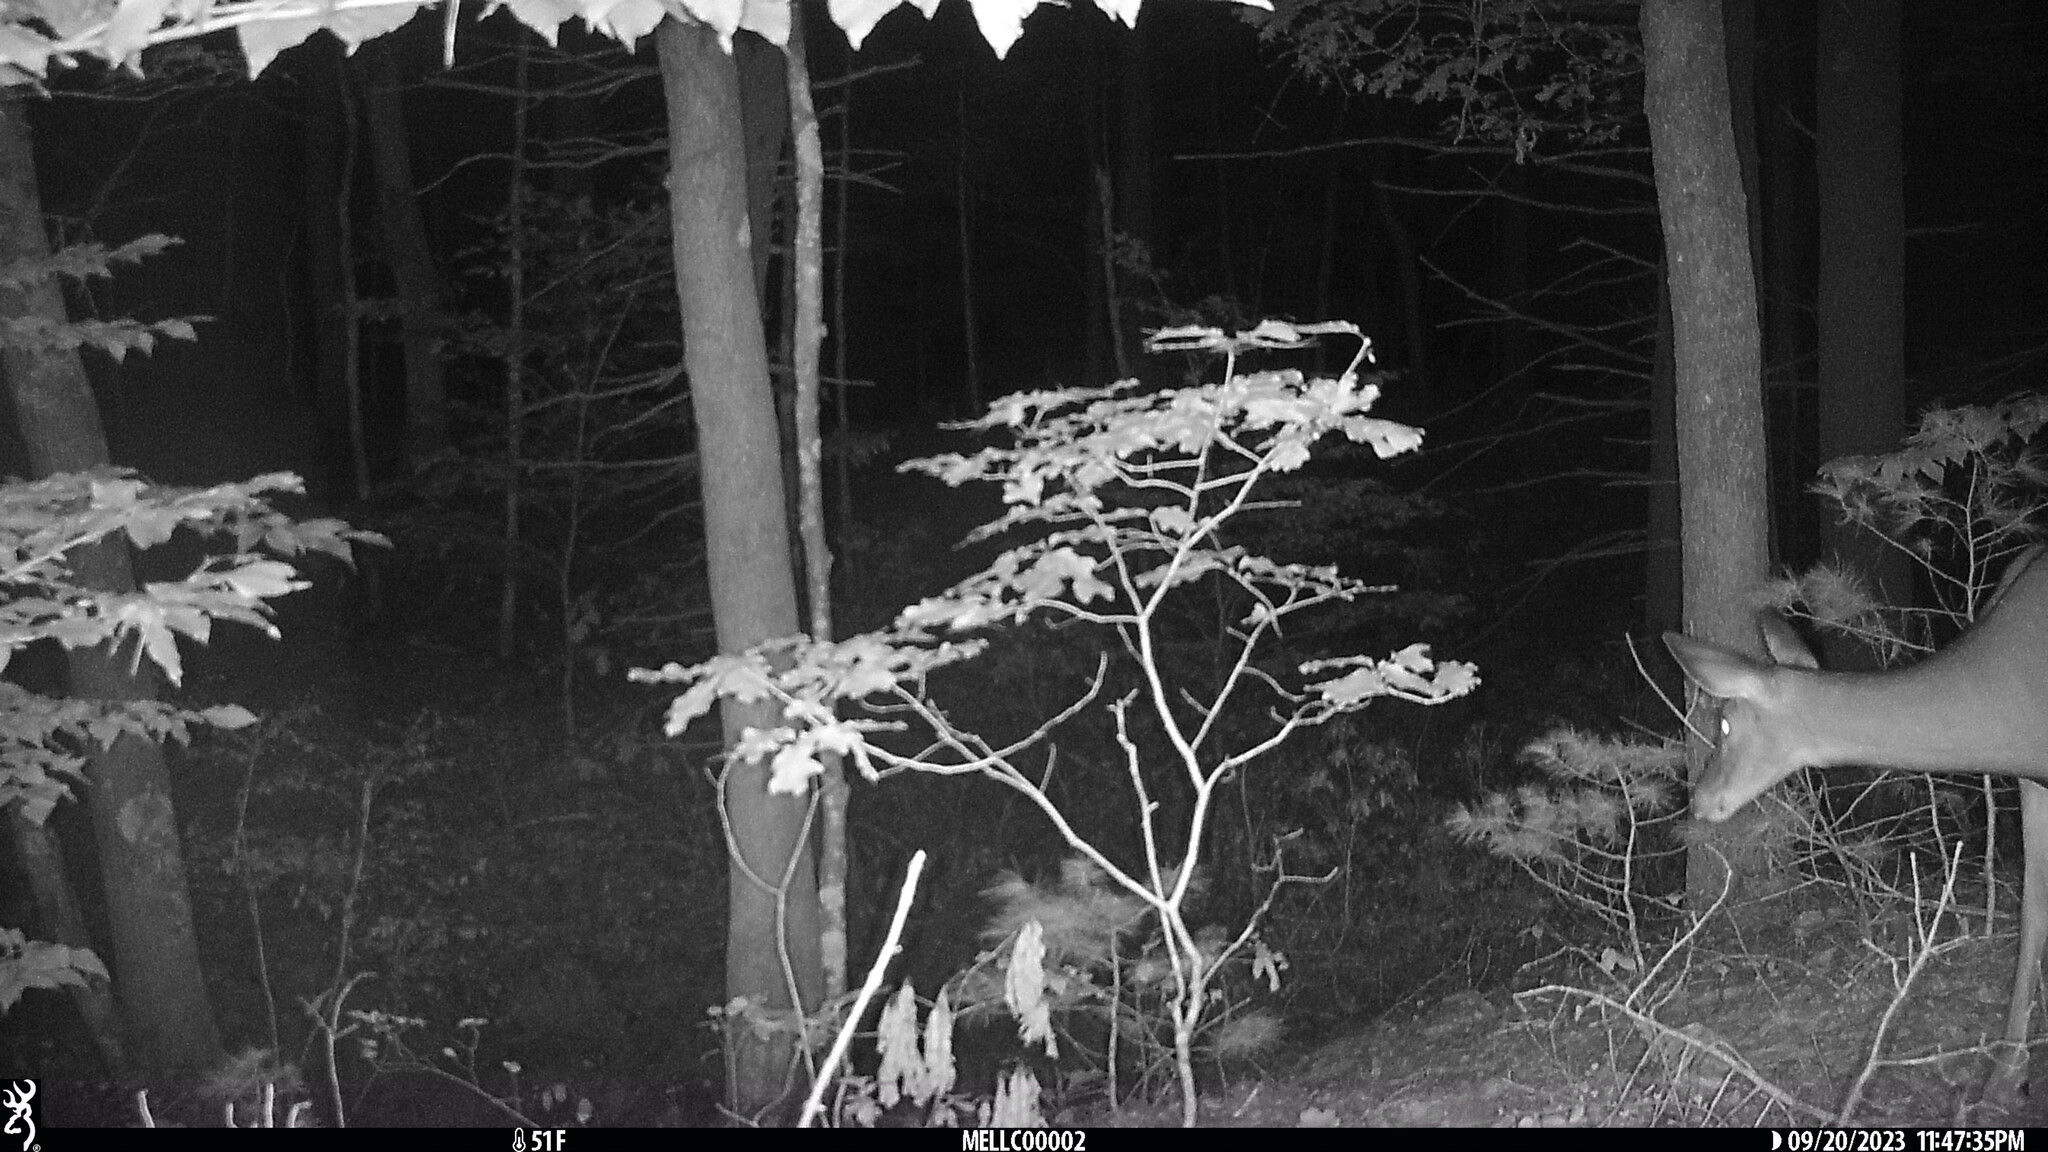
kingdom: Animalia
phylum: Chordata
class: Mammalia
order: Artiodactyla
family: Cervidae
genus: Odocoileus
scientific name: Odocoileus virginianus
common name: White-tailed deer
